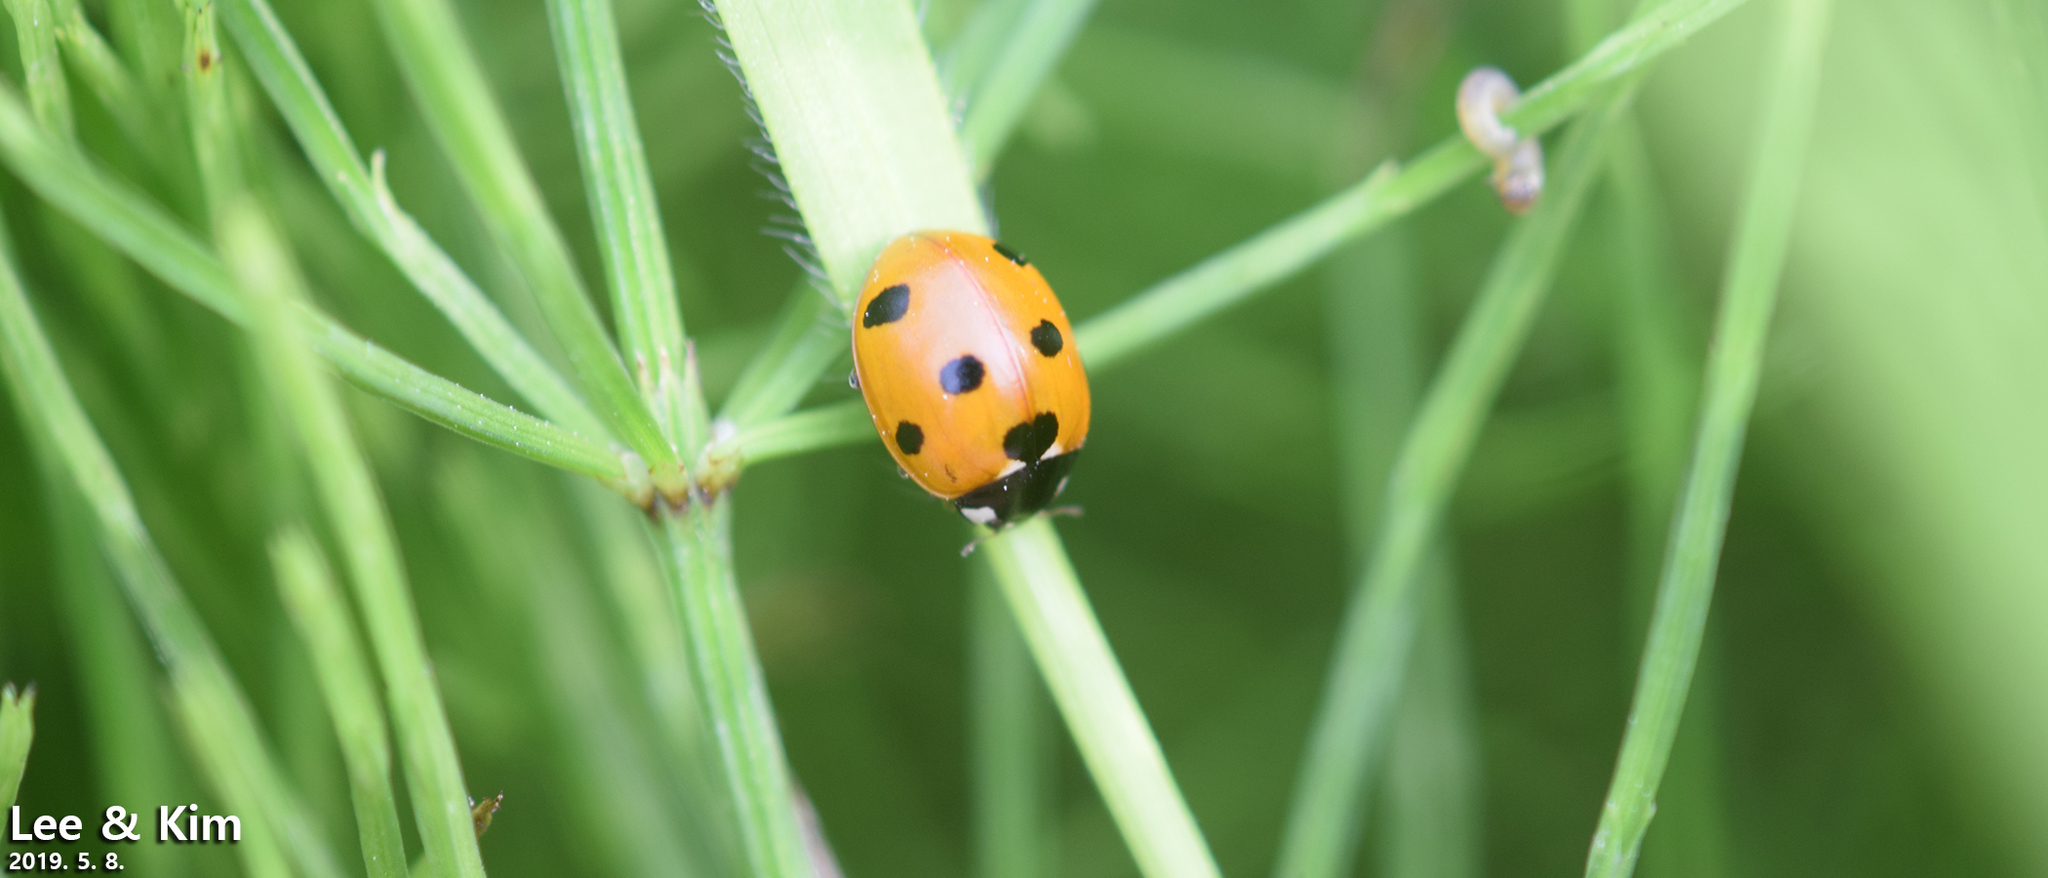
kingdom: Animalia
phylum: Arthropoda
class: Insecta
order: Coleoptera
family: Coccinellidae
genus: Coccinella
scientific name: Coccinella septempunctata
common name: Sevenspotted lady beetle
